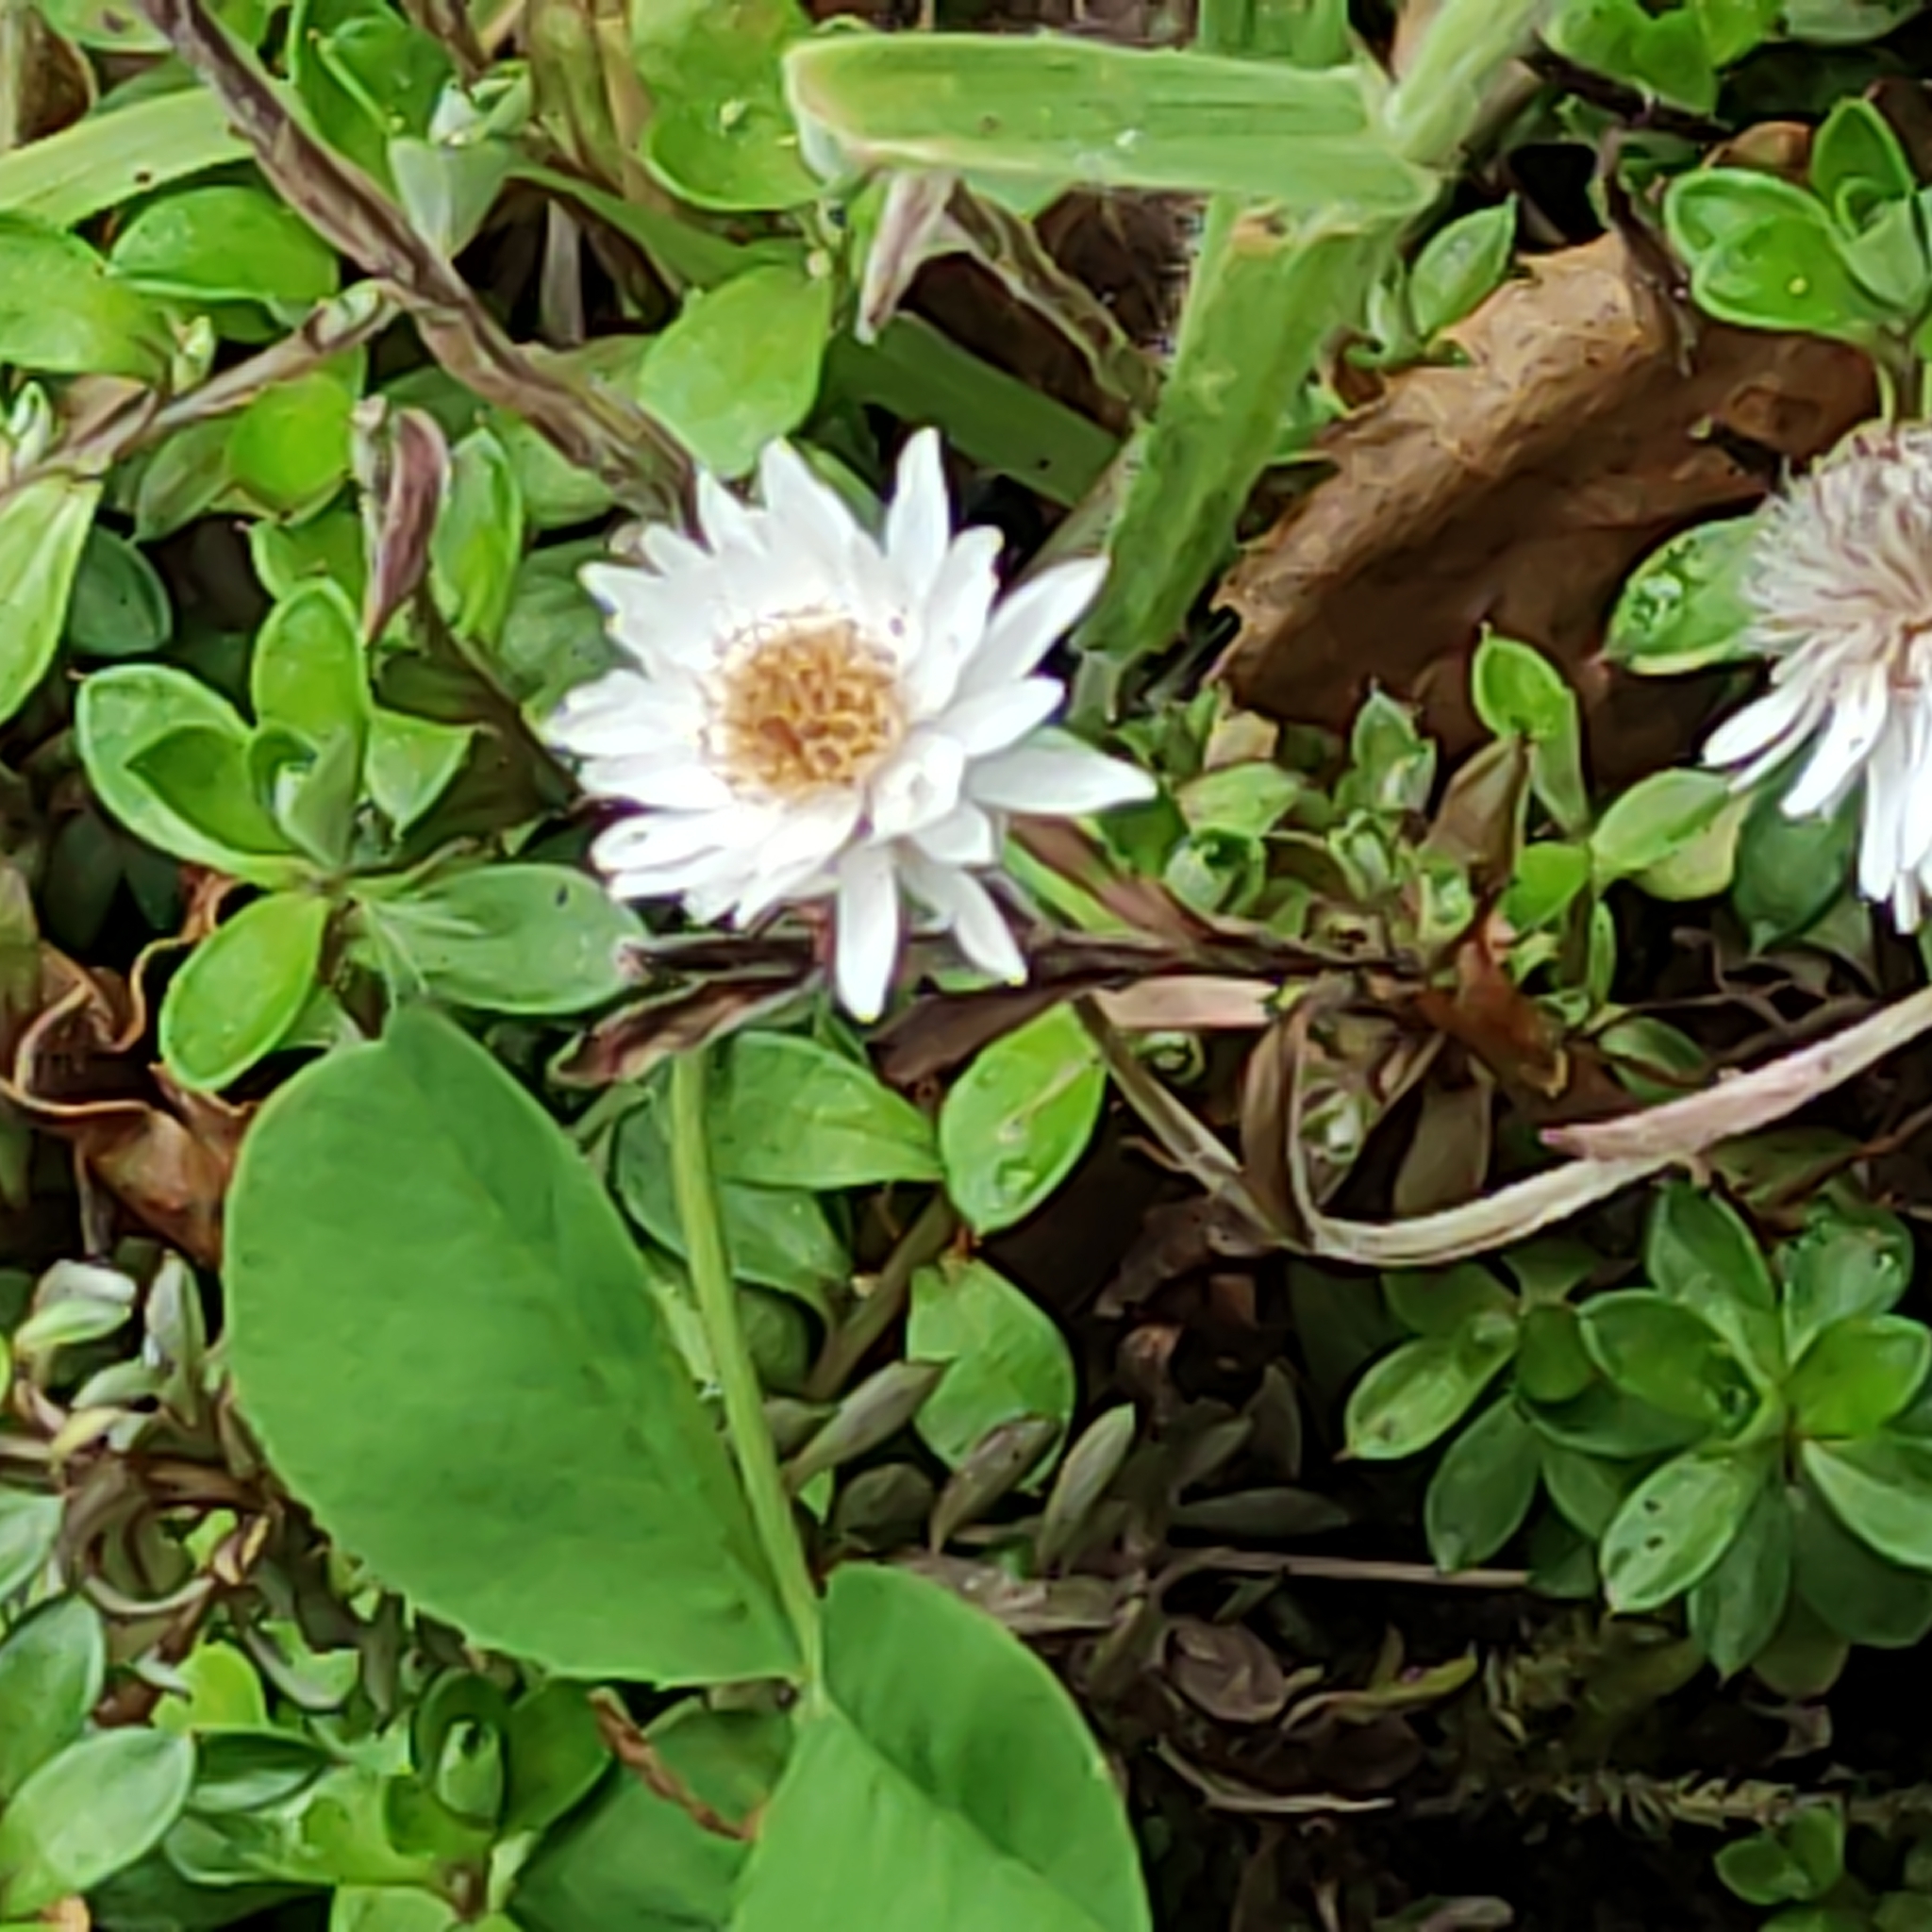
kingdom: Plantae
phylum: Tracheophyta
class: Magnoliopsida
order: Asterales
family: Asteraceae
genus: Anaphalioides
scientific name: Anaphalioides bellidioides
